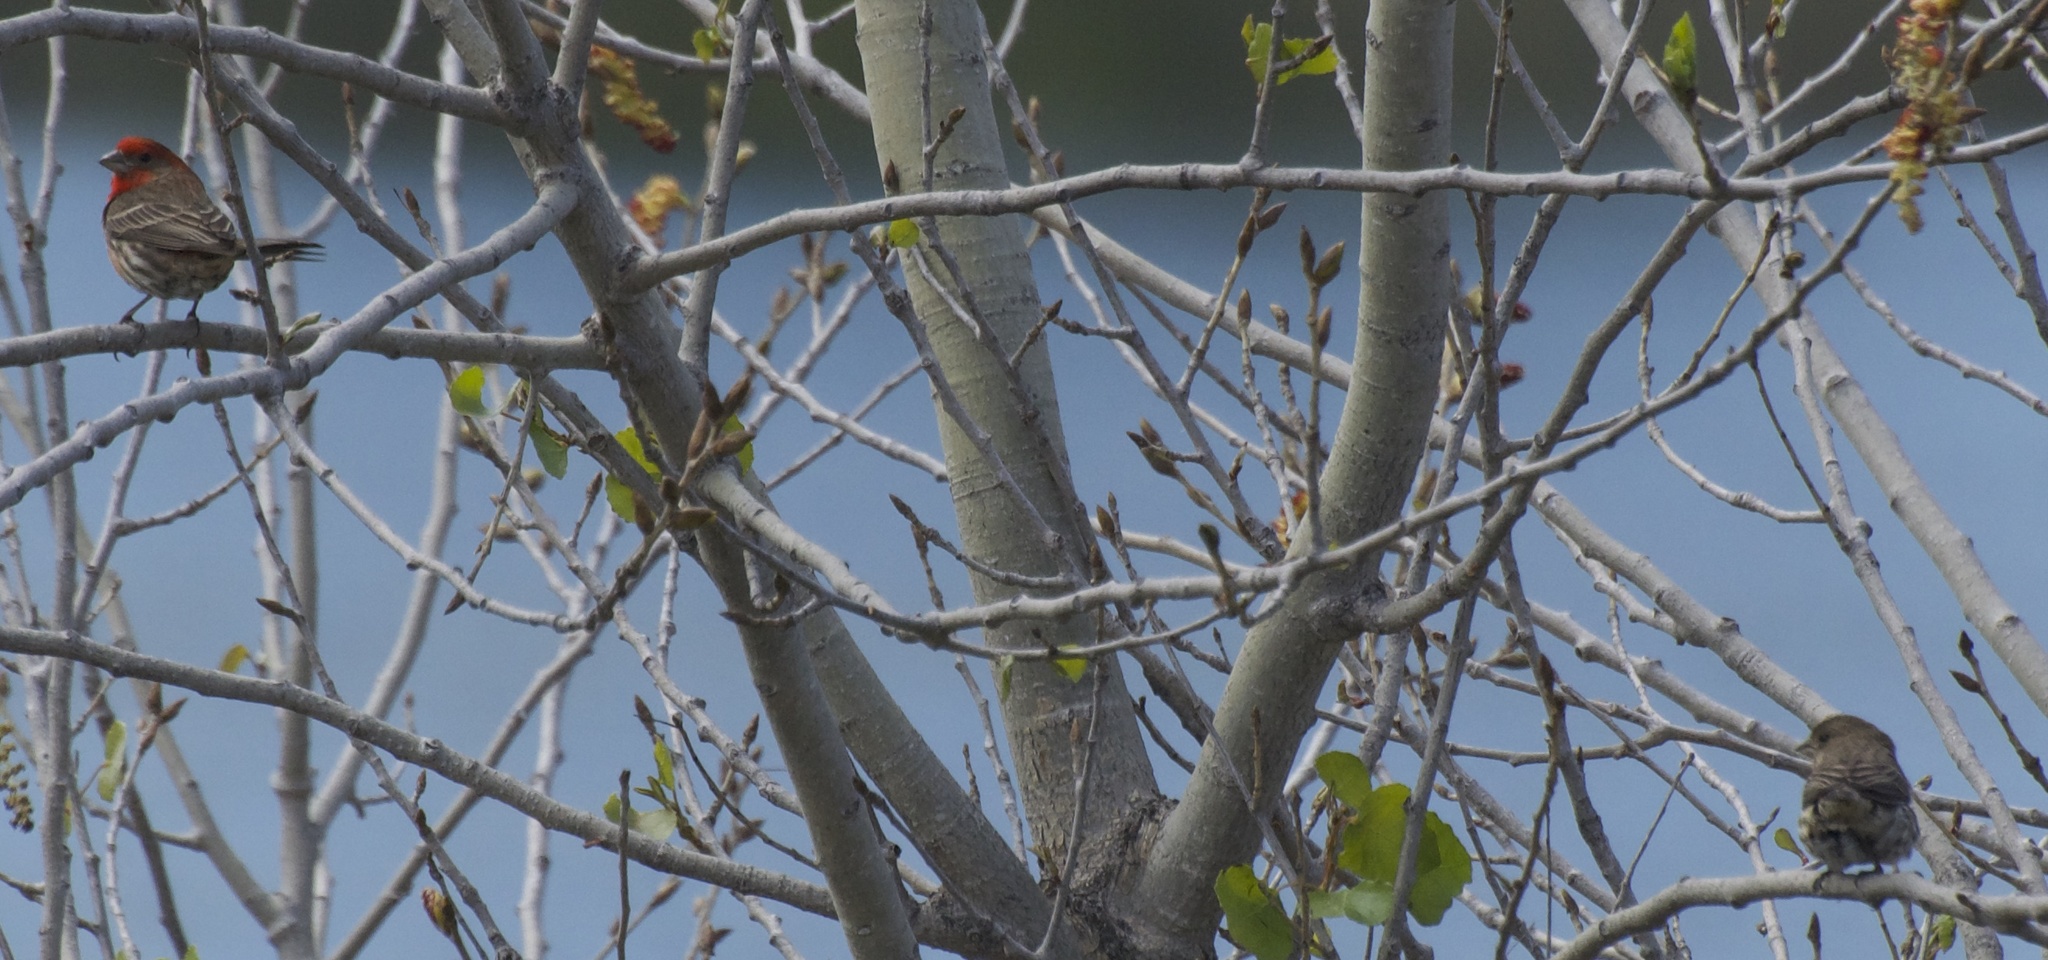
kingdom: Animalia
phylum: Chordata
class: Aves
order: Passeriformes
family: Fringillidae
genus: Haemorhous
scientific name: Haemorhous mexicanus
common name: House finch
